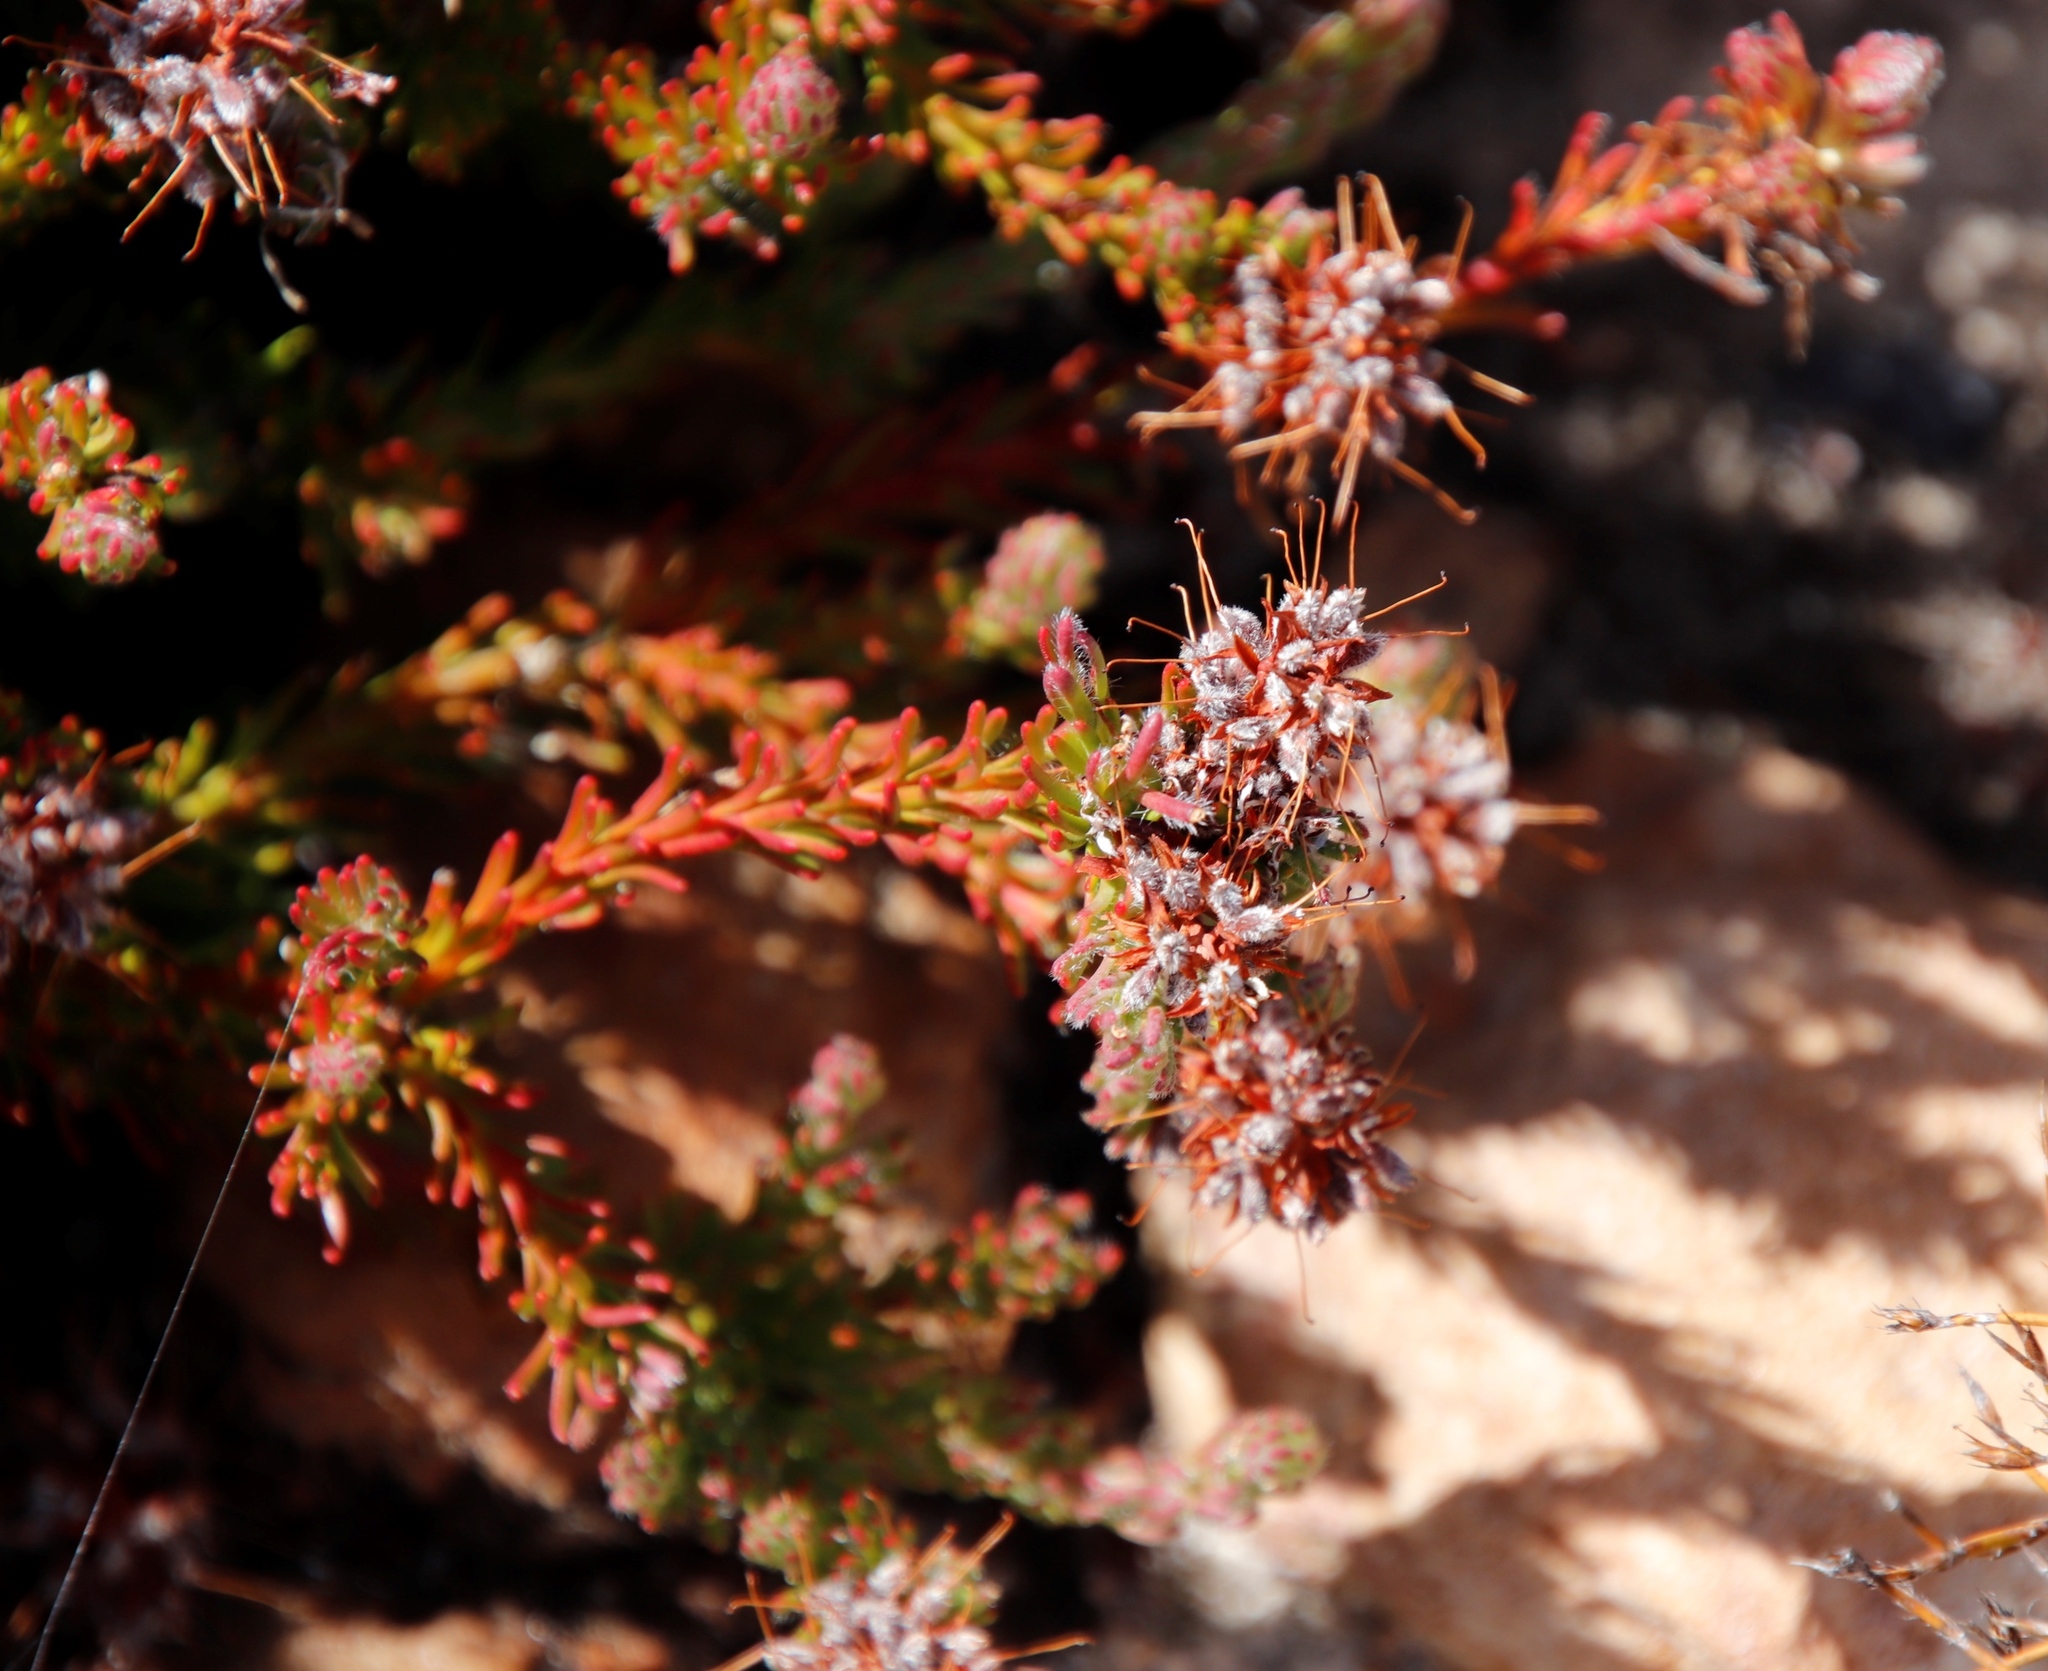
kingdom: Plantae
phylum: Tracheophyta
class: Magnoliopsida
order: Proteales
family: Proteaceae
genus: Spatalla
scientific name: Spatalla confusa
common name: Long-tube spoon
